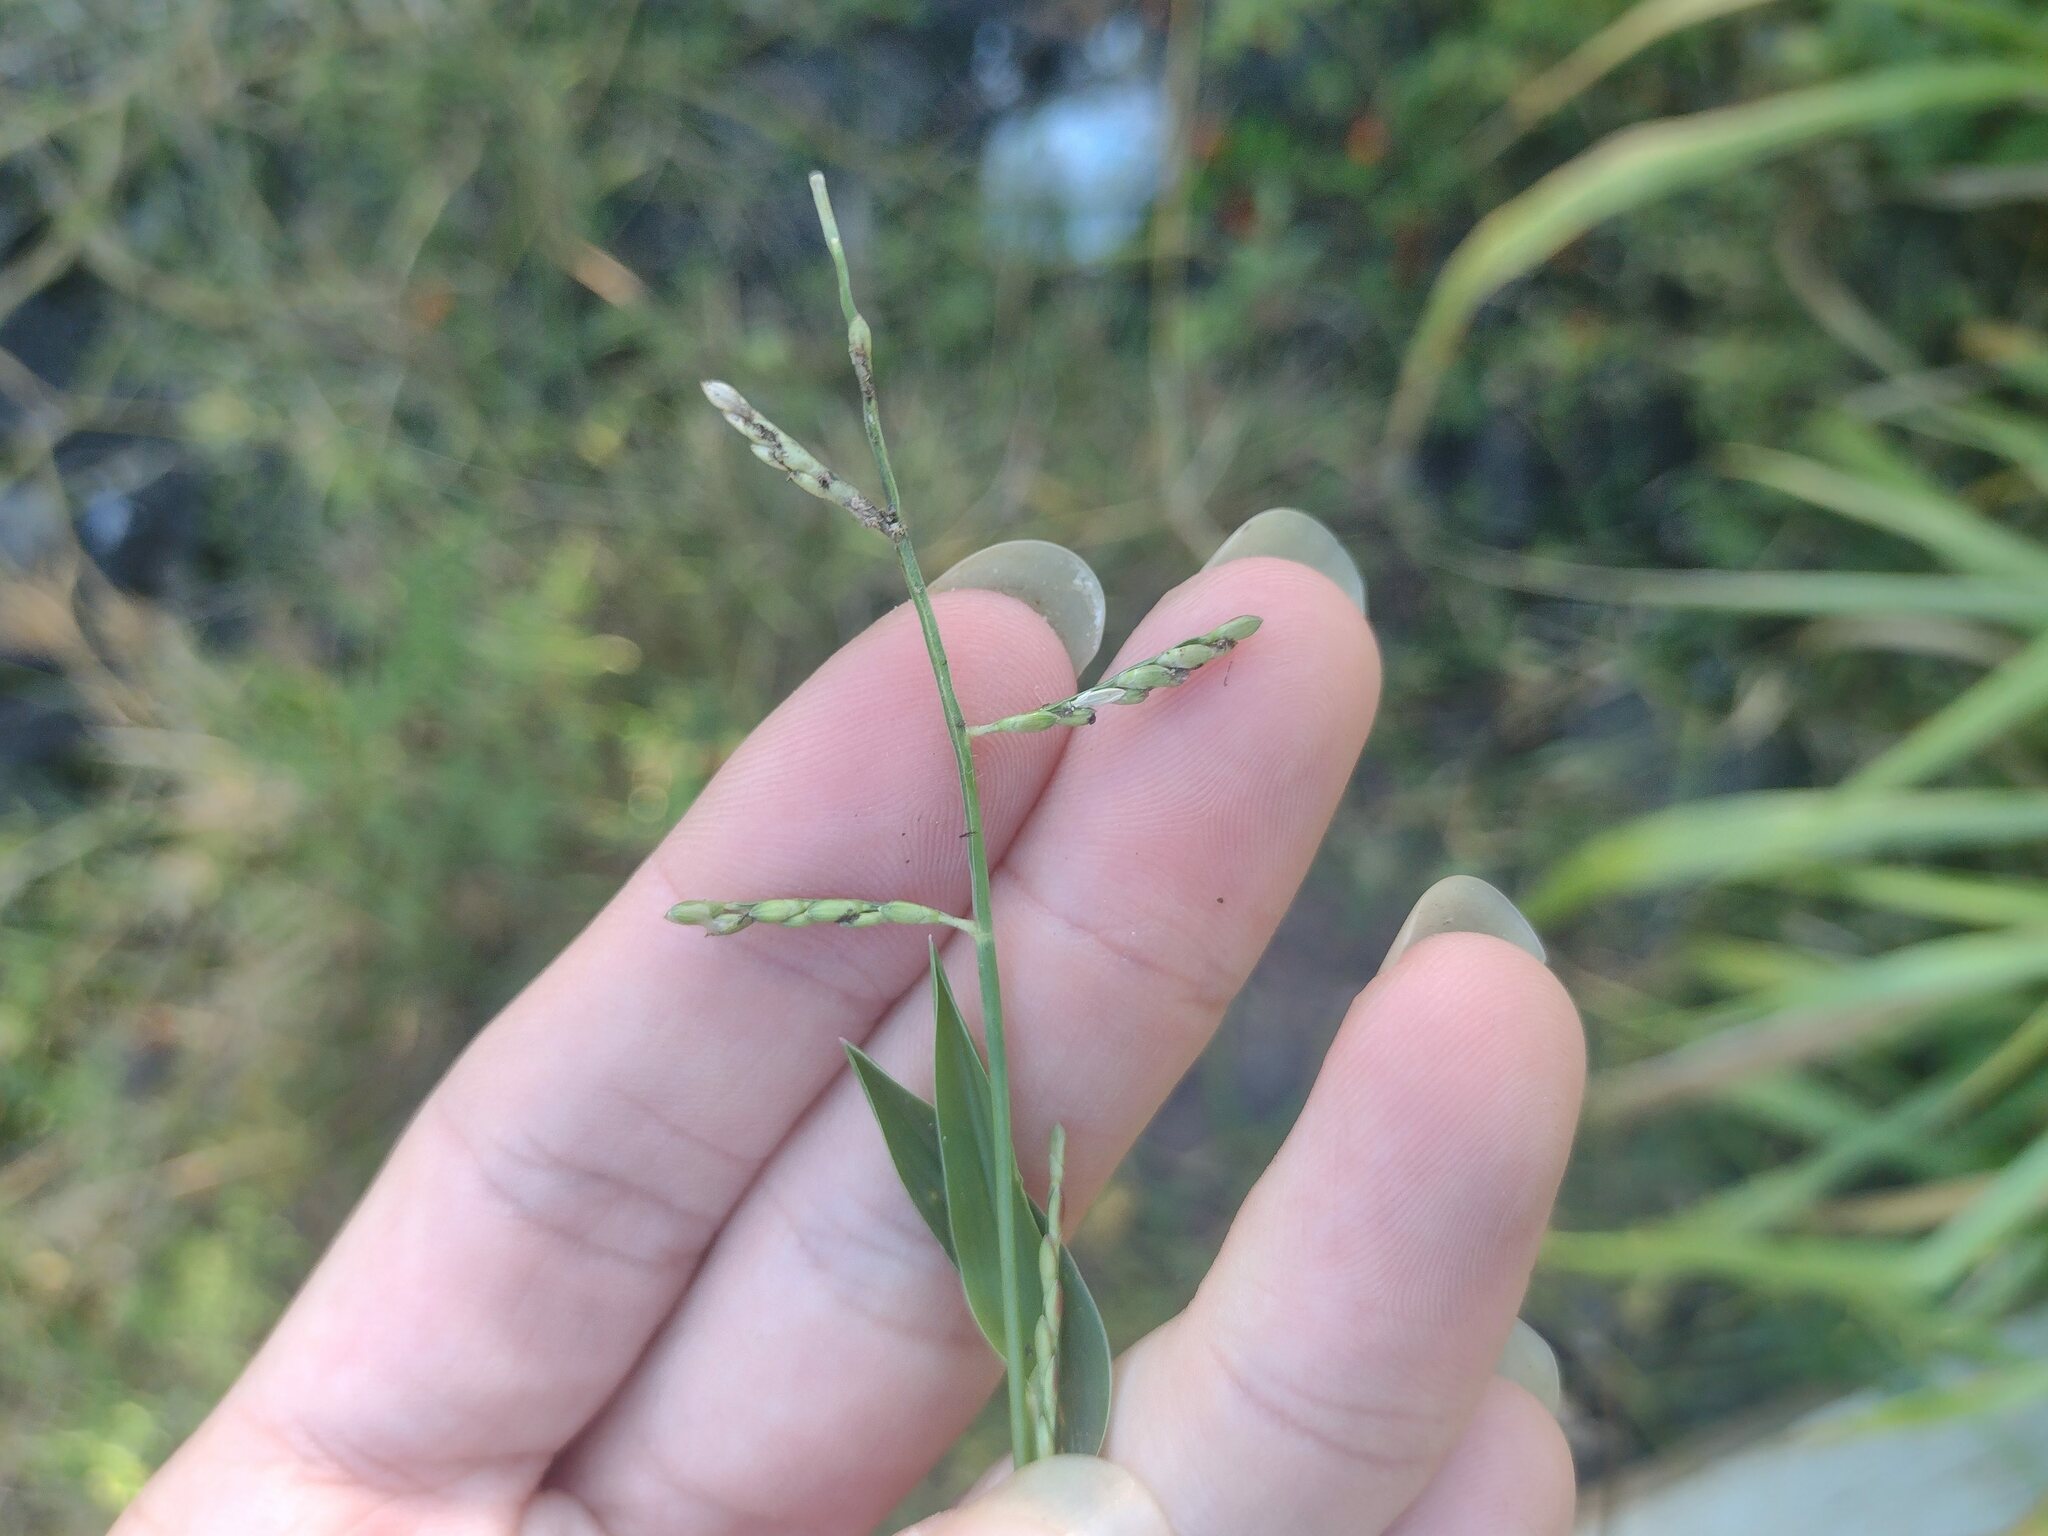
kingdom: Plantae
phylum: Tracheophyta
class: Liliopsida
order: Poales
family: Poaceae
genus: Urochloa
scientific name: Urochloa distachyos
